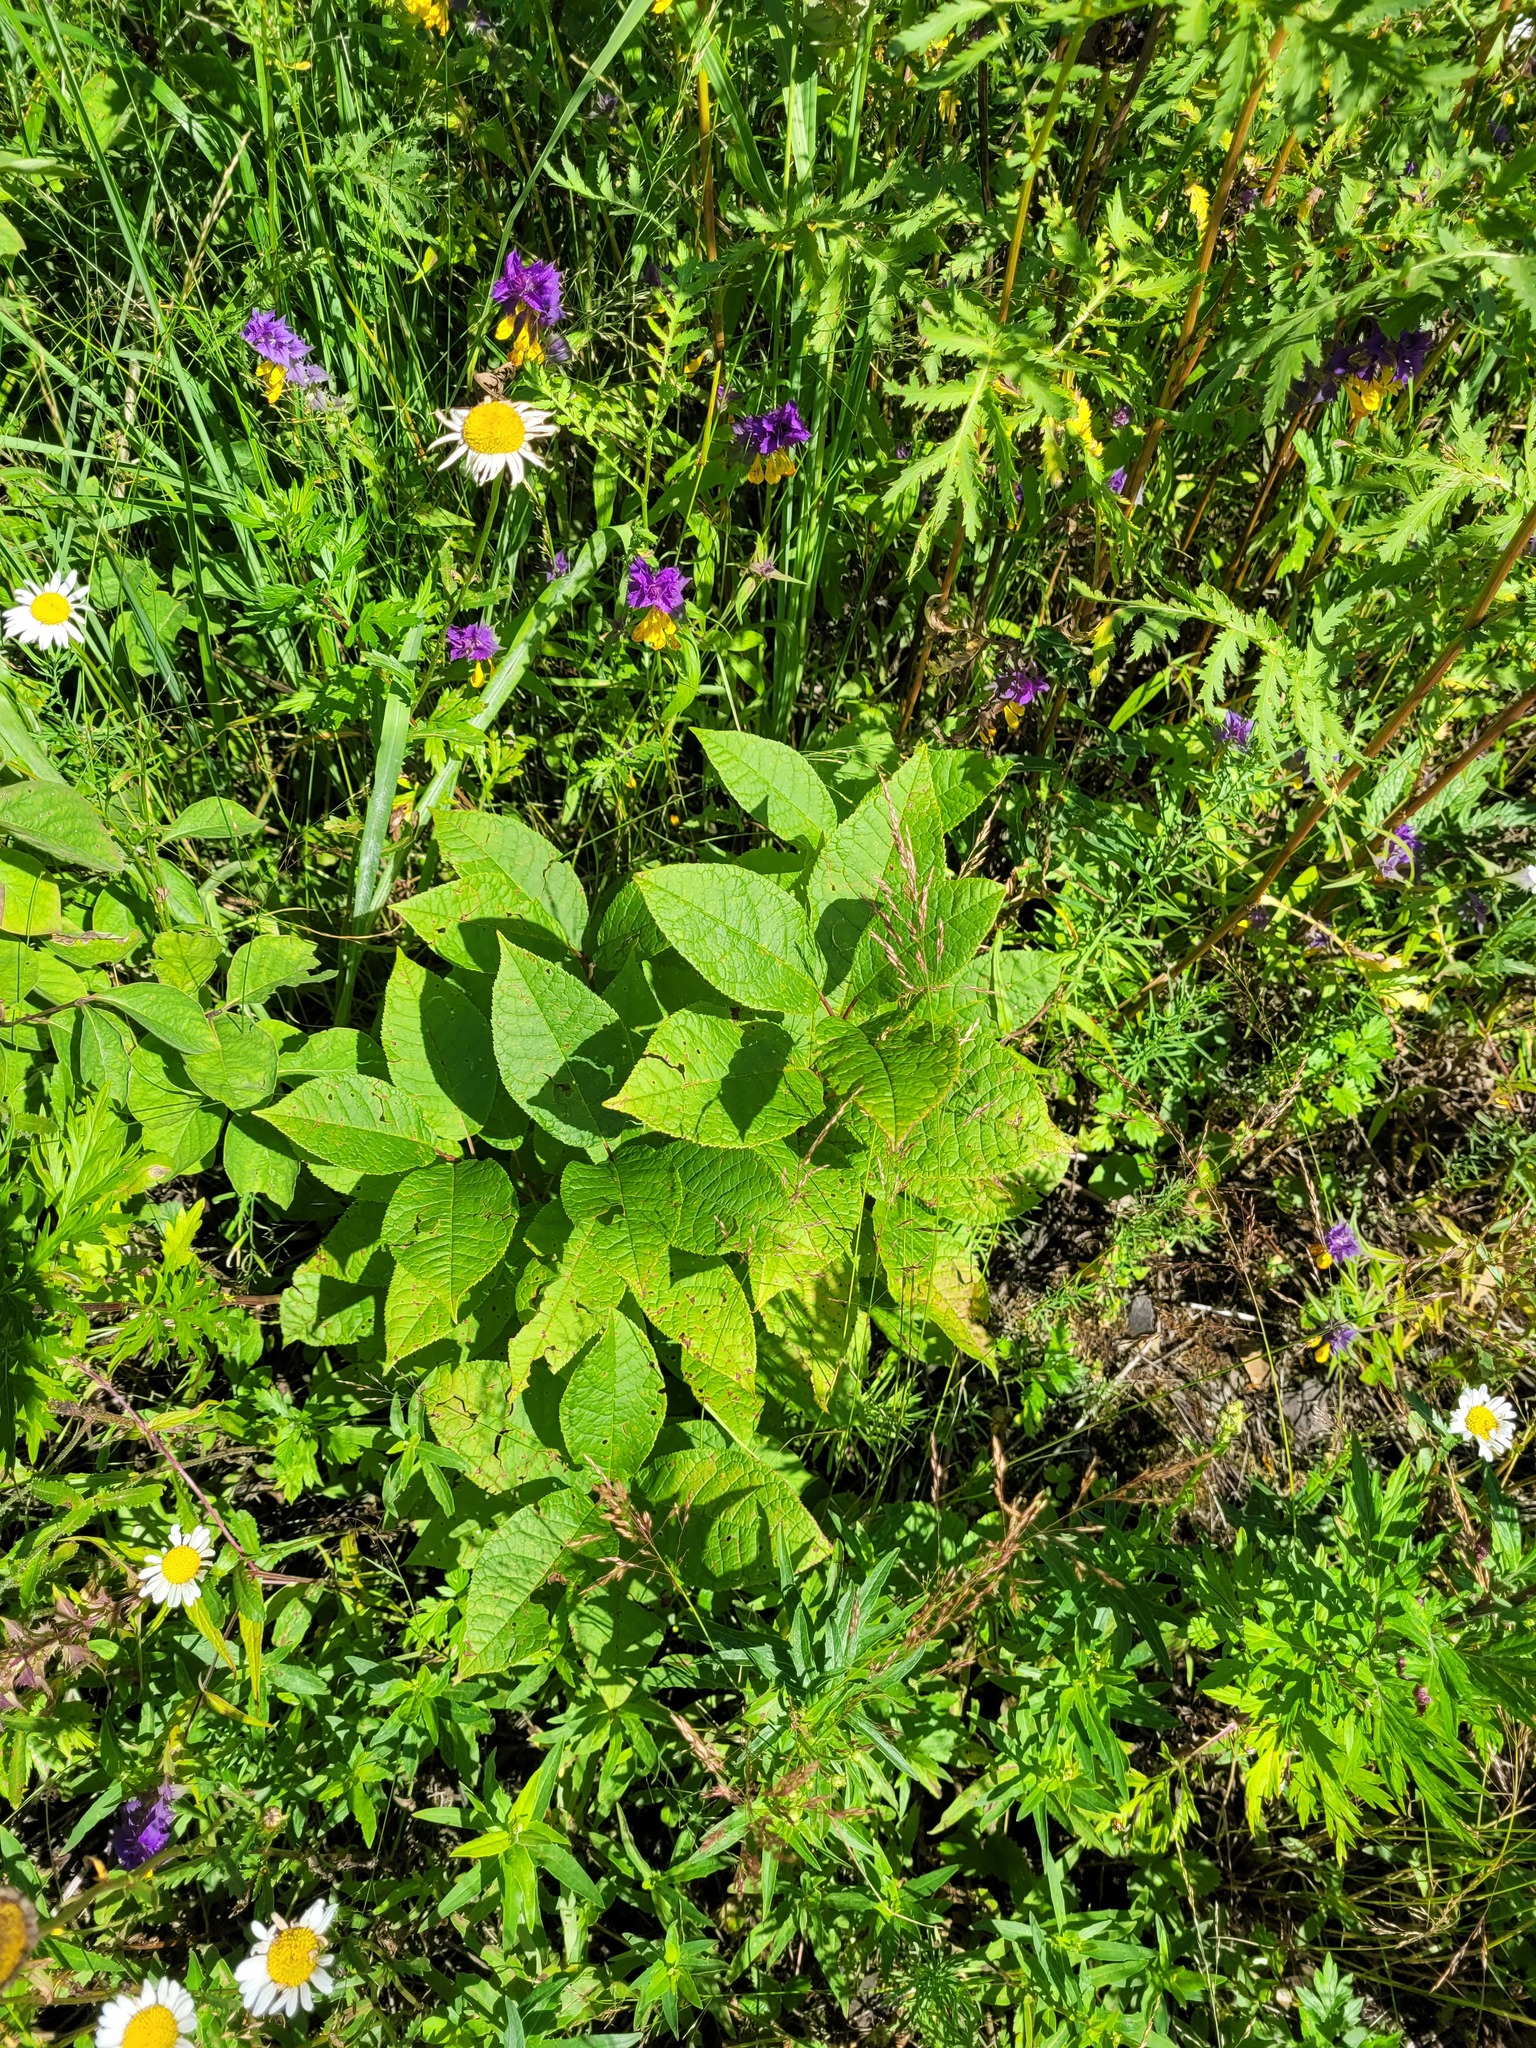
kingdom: Plantae
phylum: Tracheophyta
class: Magnoliopsida
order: Rosales
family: Rosaceae
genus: Prunus
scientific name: Prunus padus
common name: Bird cherry
